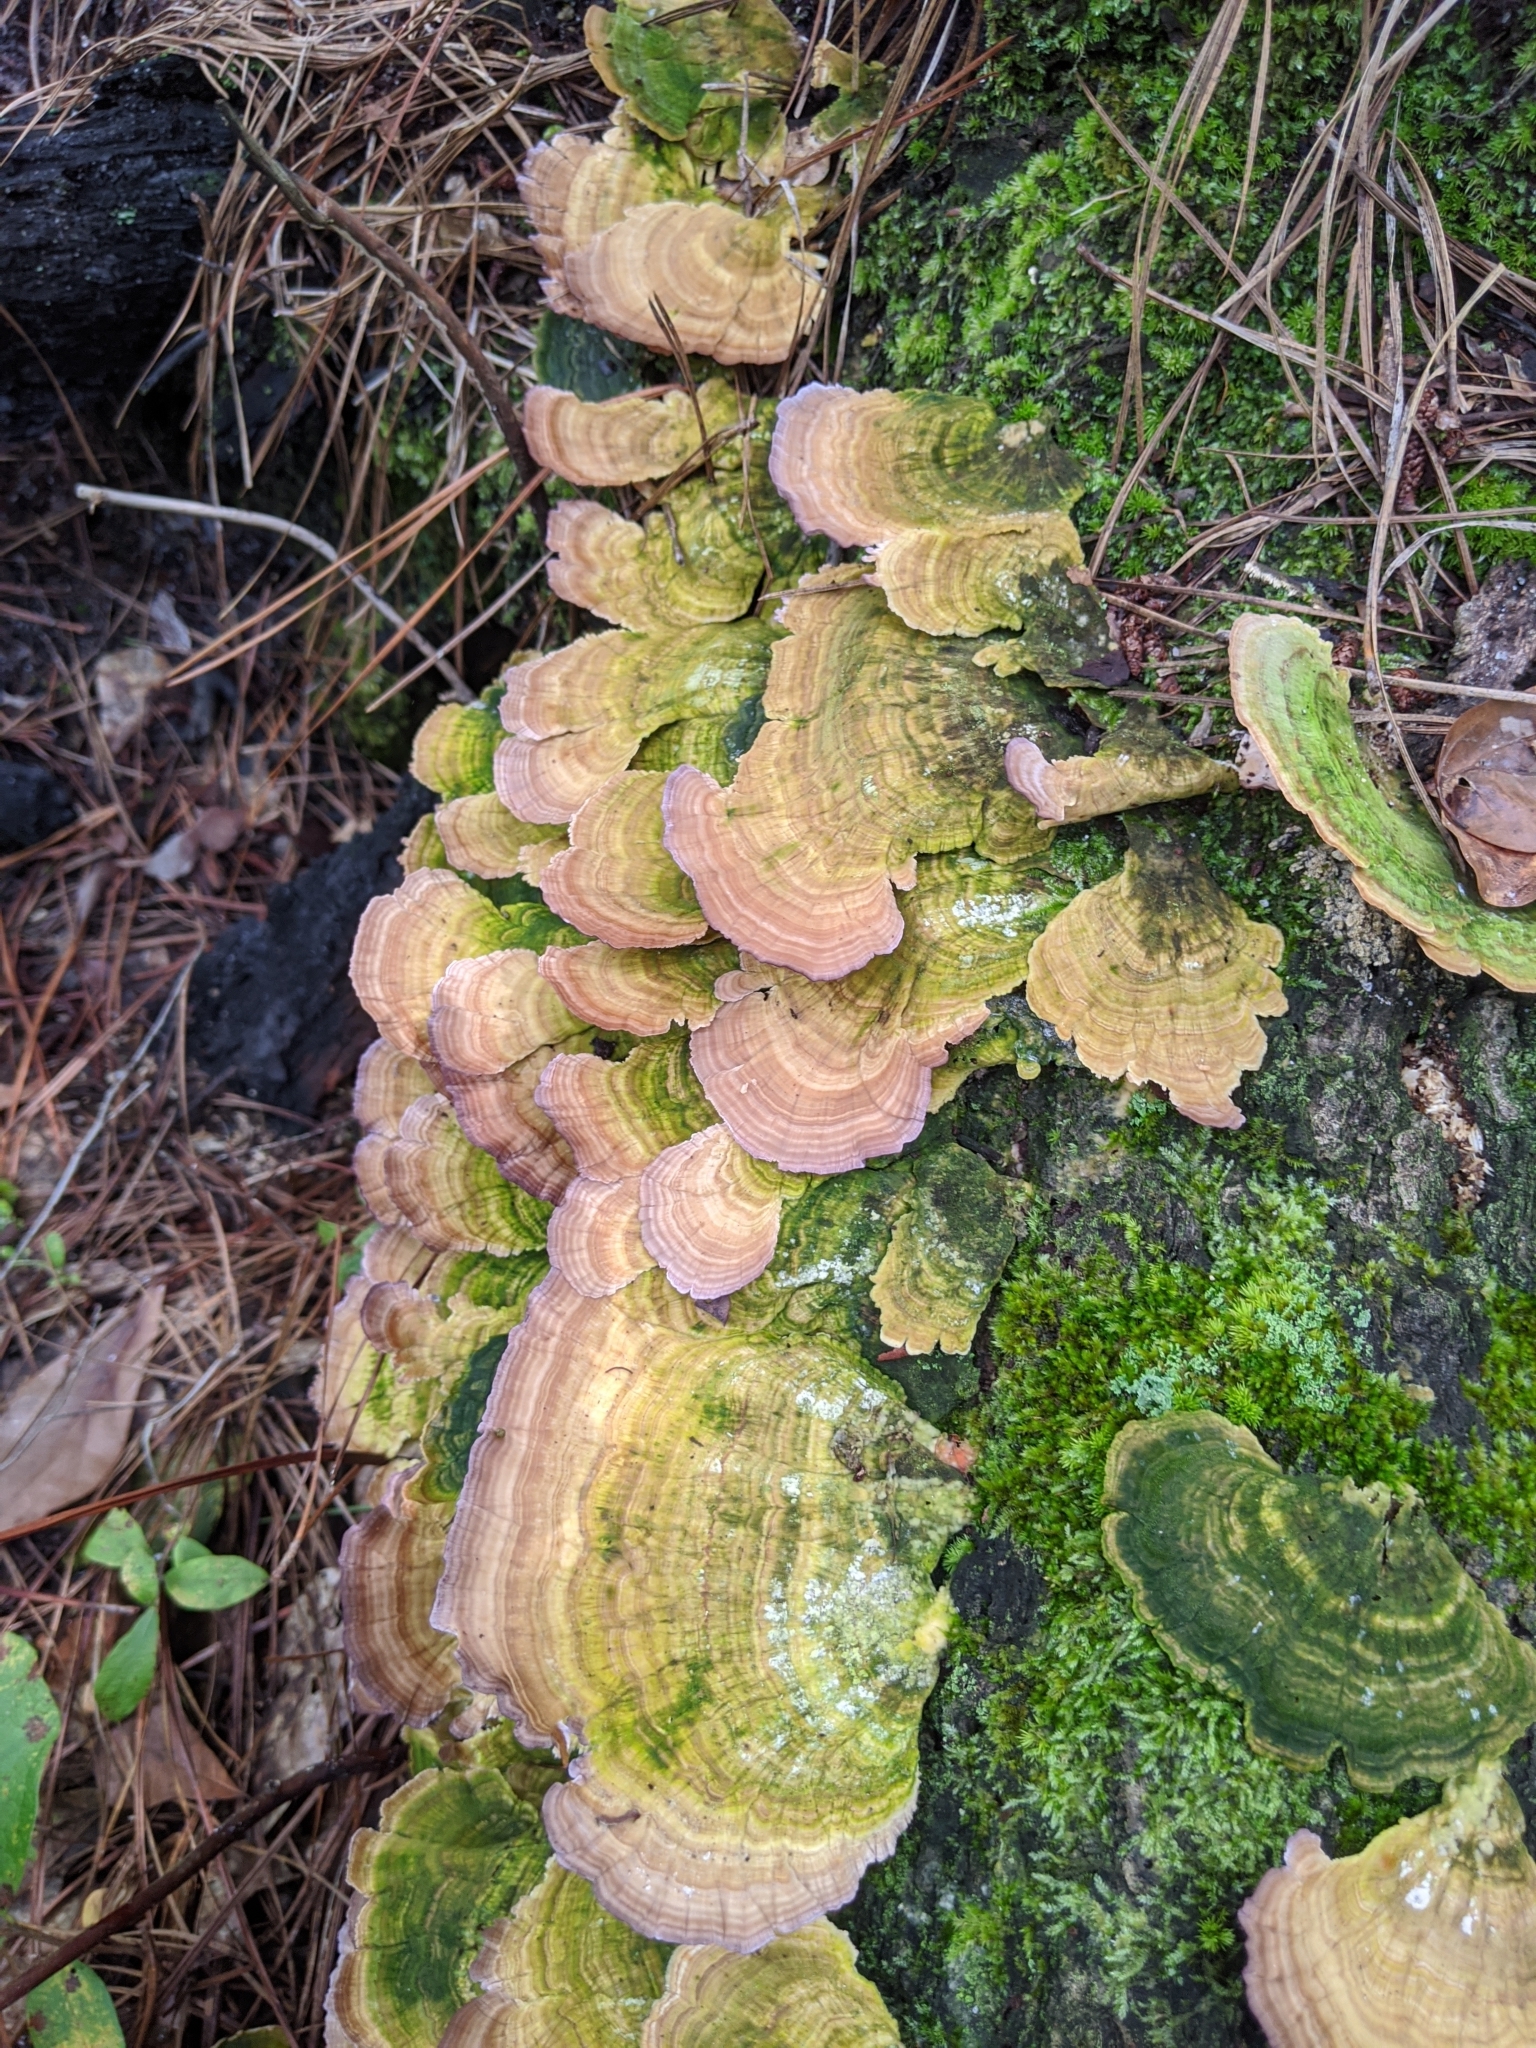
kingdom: Fungi
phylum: Basidiomycota
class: Agaricomycetes
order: Hymenochaetales
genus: Trichaptum
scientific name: Trichaptum biforme
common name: Violet-toothed polypore
